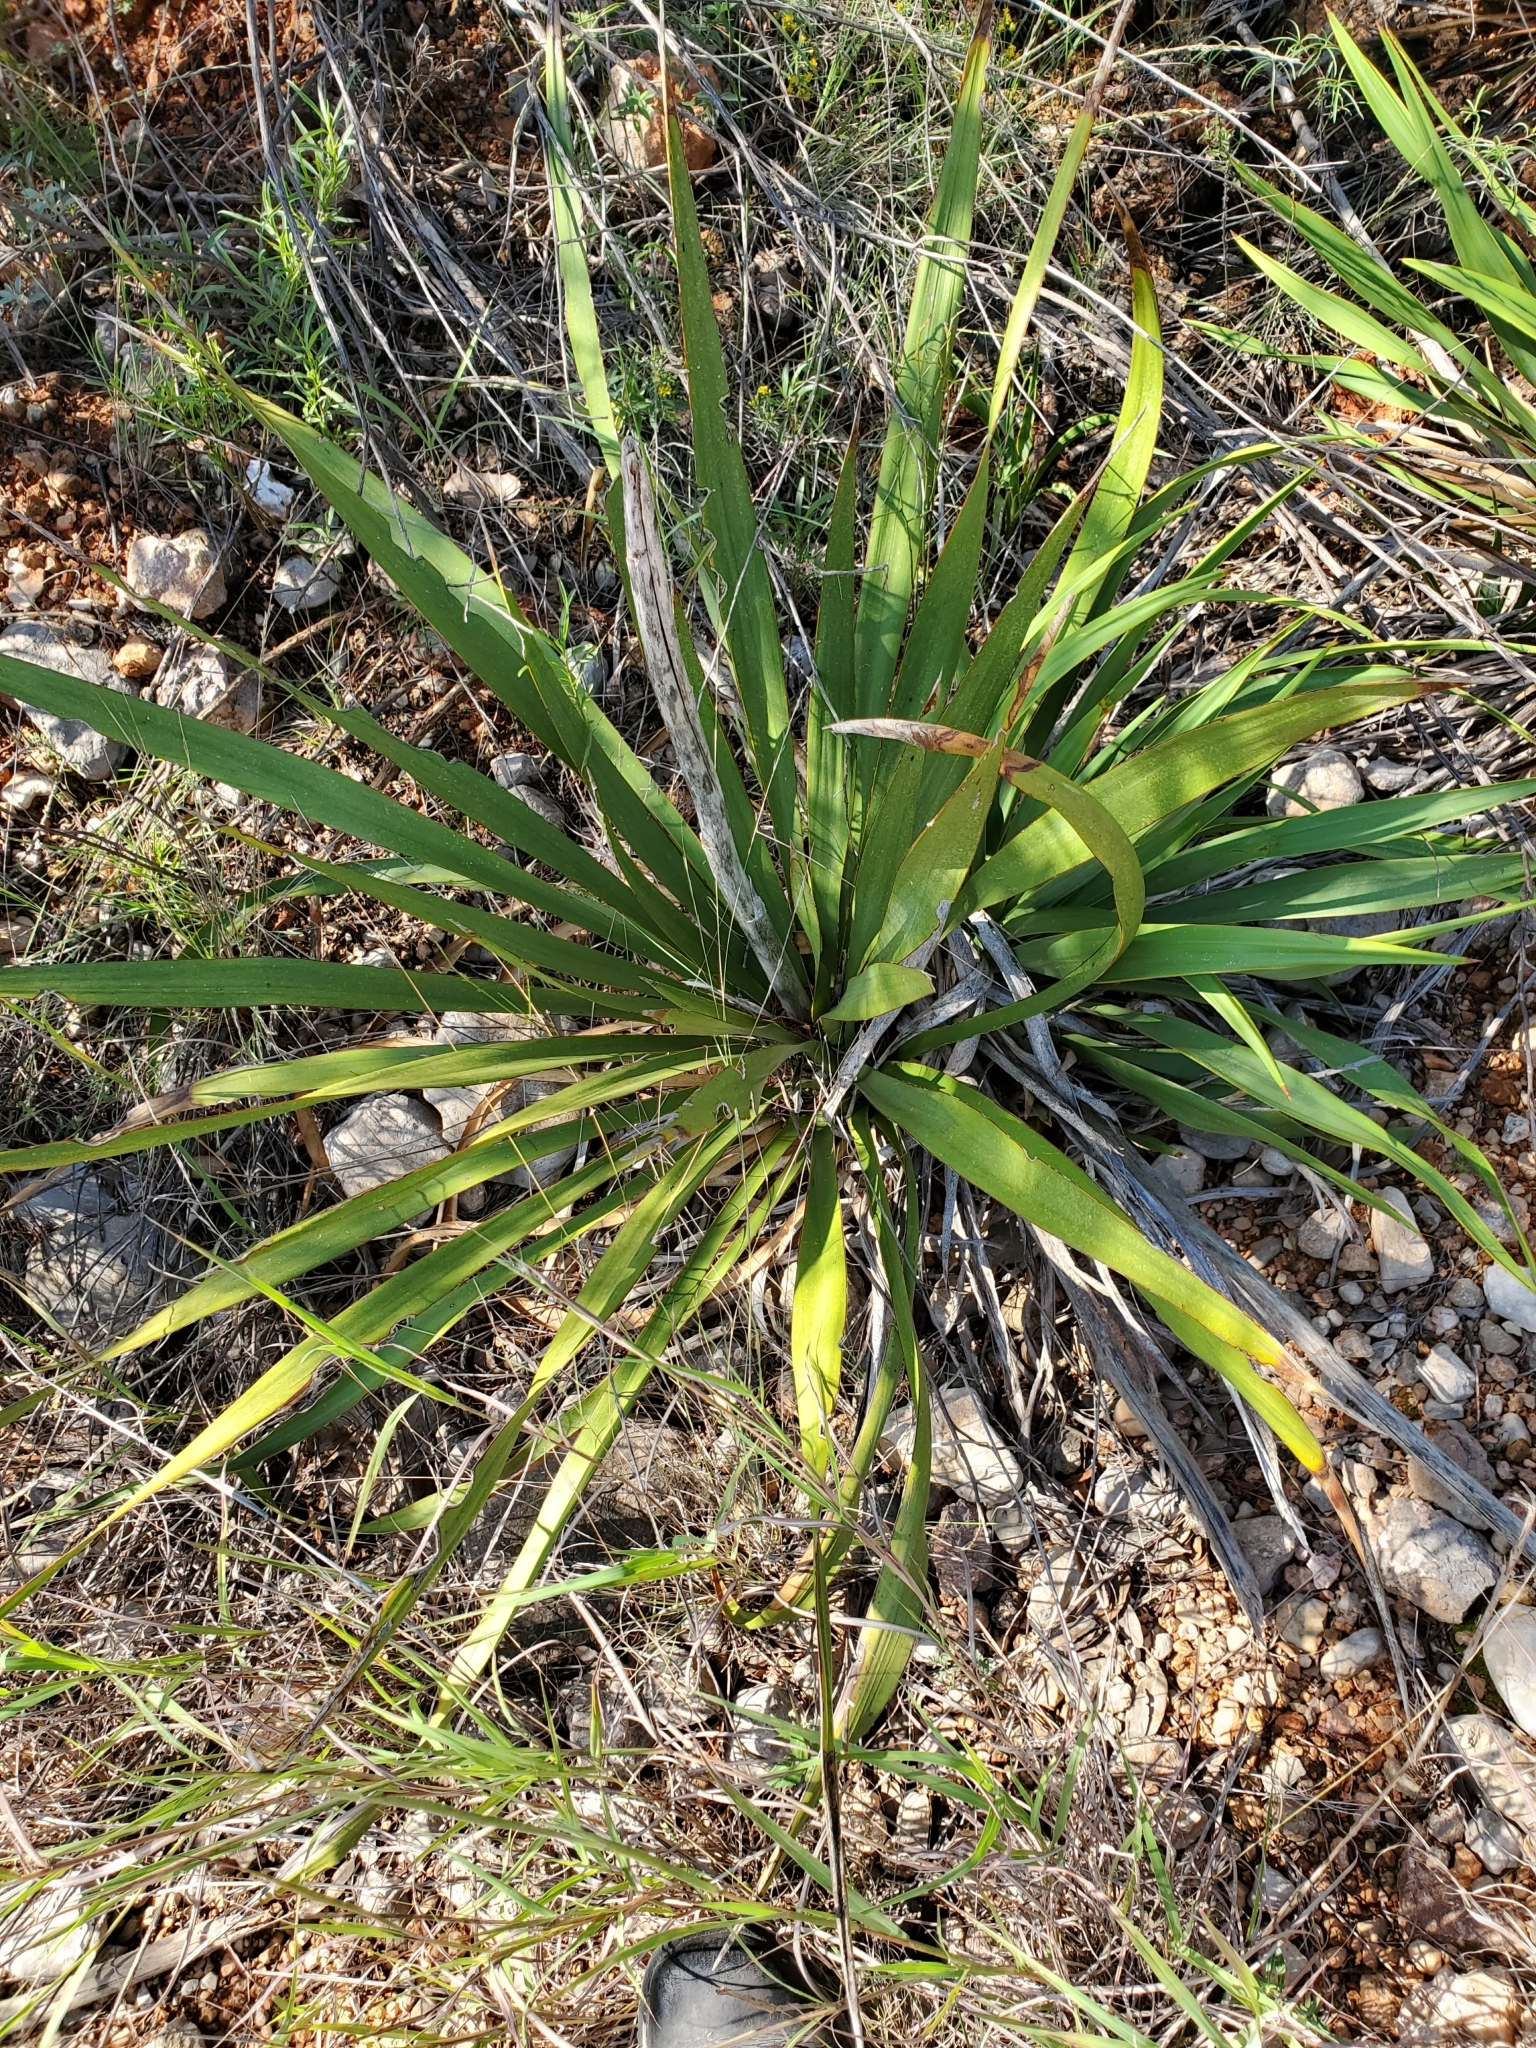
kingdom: Plantae
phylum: Tracheophyta
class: Liliopsida
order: Asparagales
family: Asparagaceae
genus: Yucca
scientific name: Yucca rupicola
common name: Twisted-leaf spanish-dagger
